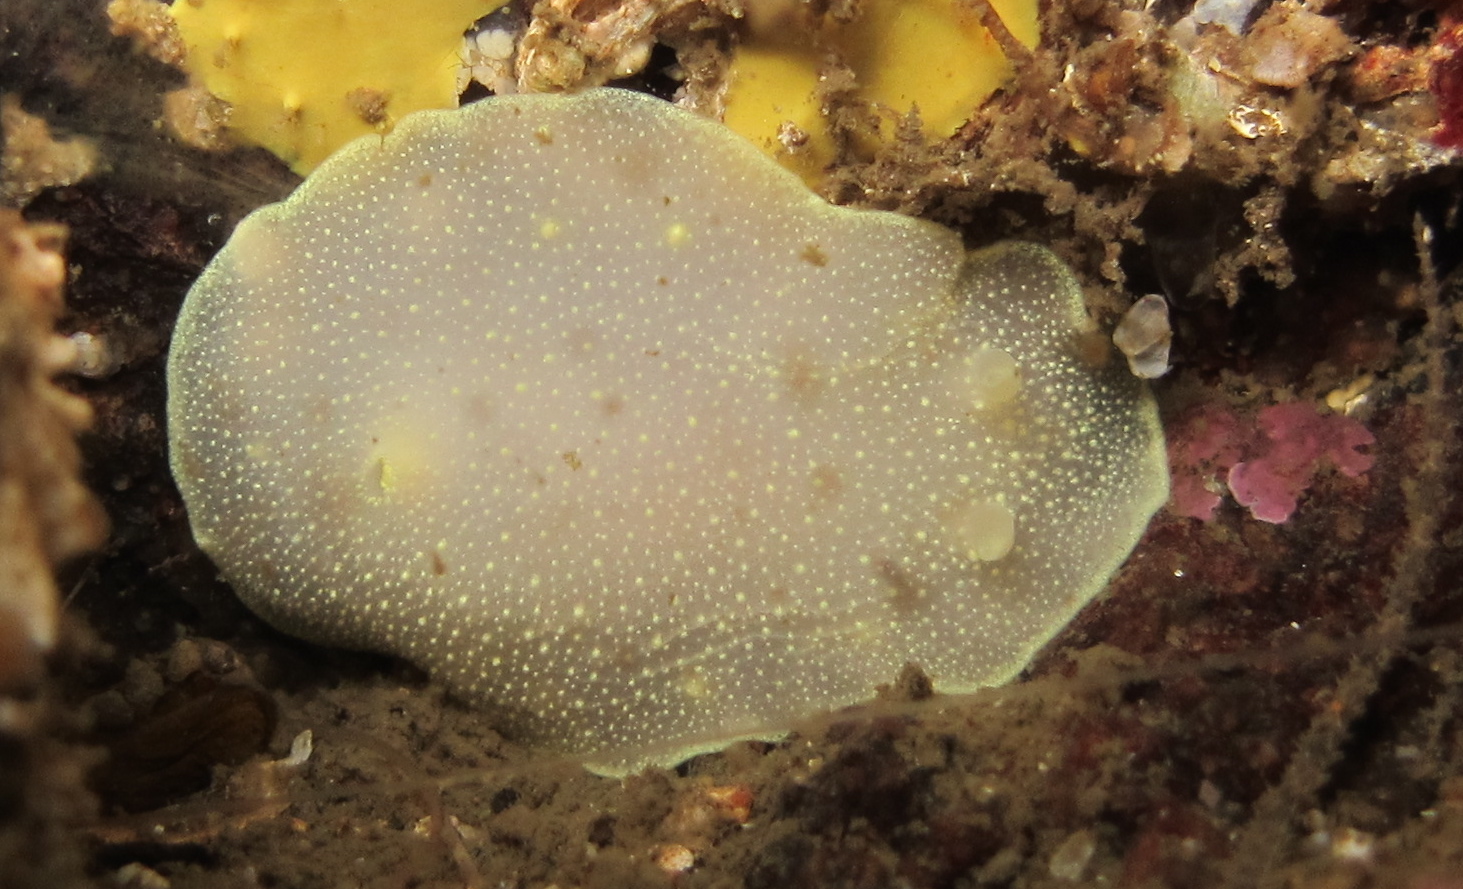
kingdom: Animalia
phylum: Mollusca
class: Gastropoda
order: Nudibranchia
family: Cadlinidae
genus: Cadlina
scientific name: Cadlina laevis
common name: White atlantic cadlina
